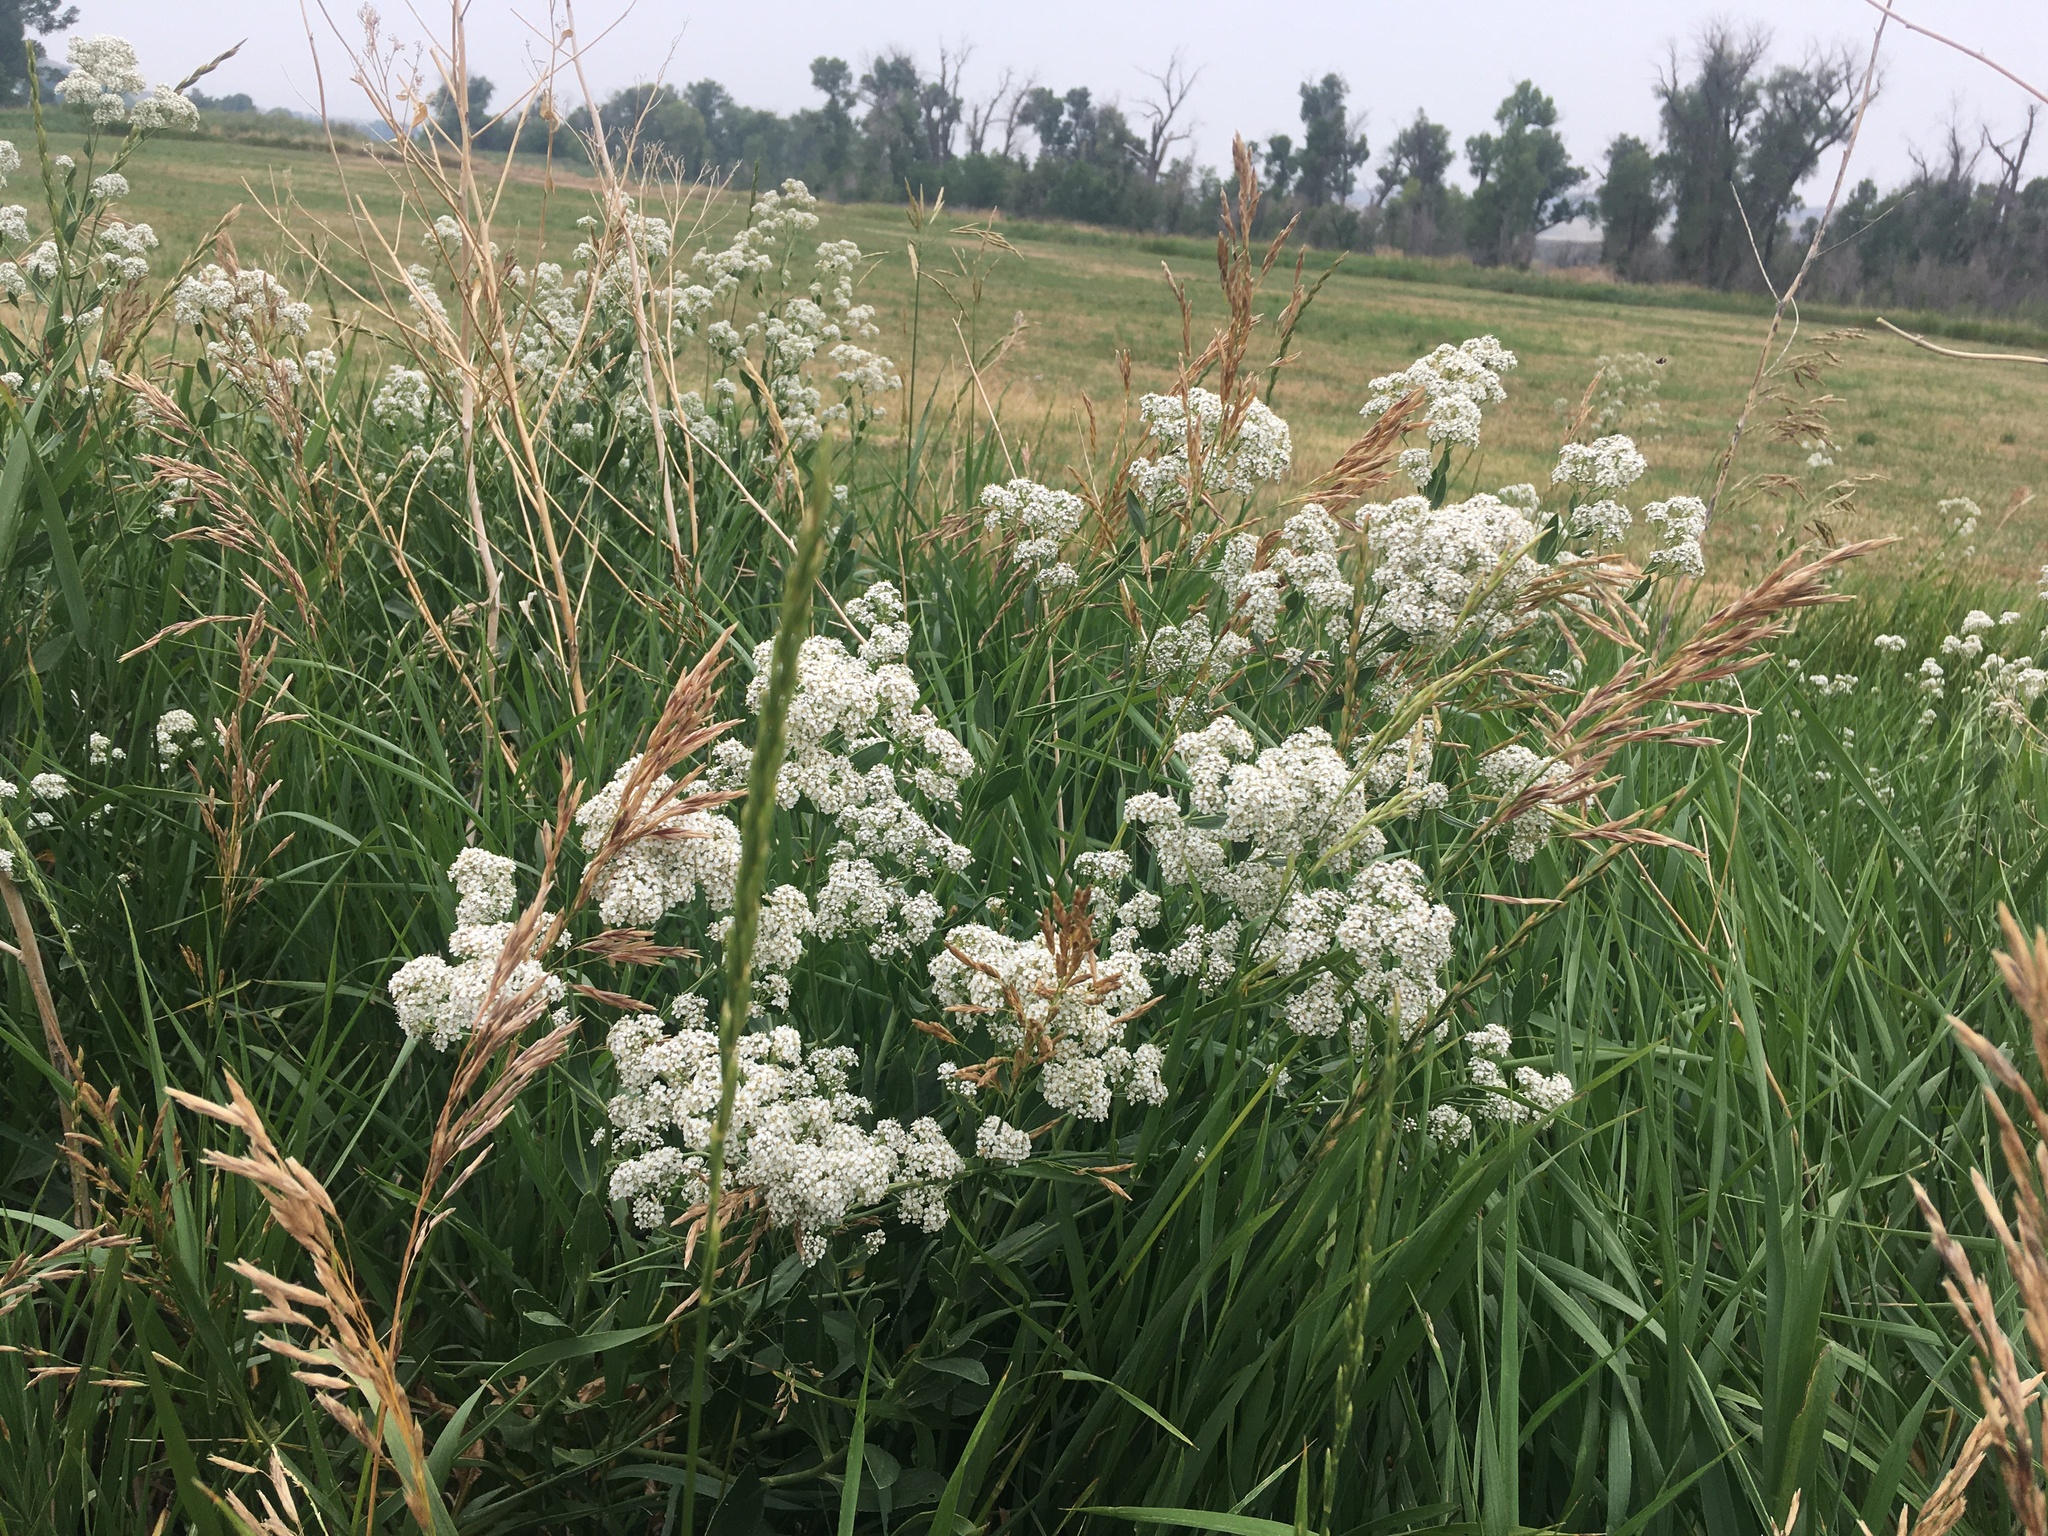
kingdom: Plantae
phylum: Tracheophyta
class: Magnoliopsida
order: Brassicales
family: Brassicaceae
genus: Lepidium
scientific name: Lepidium latifolium
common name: Dittander
